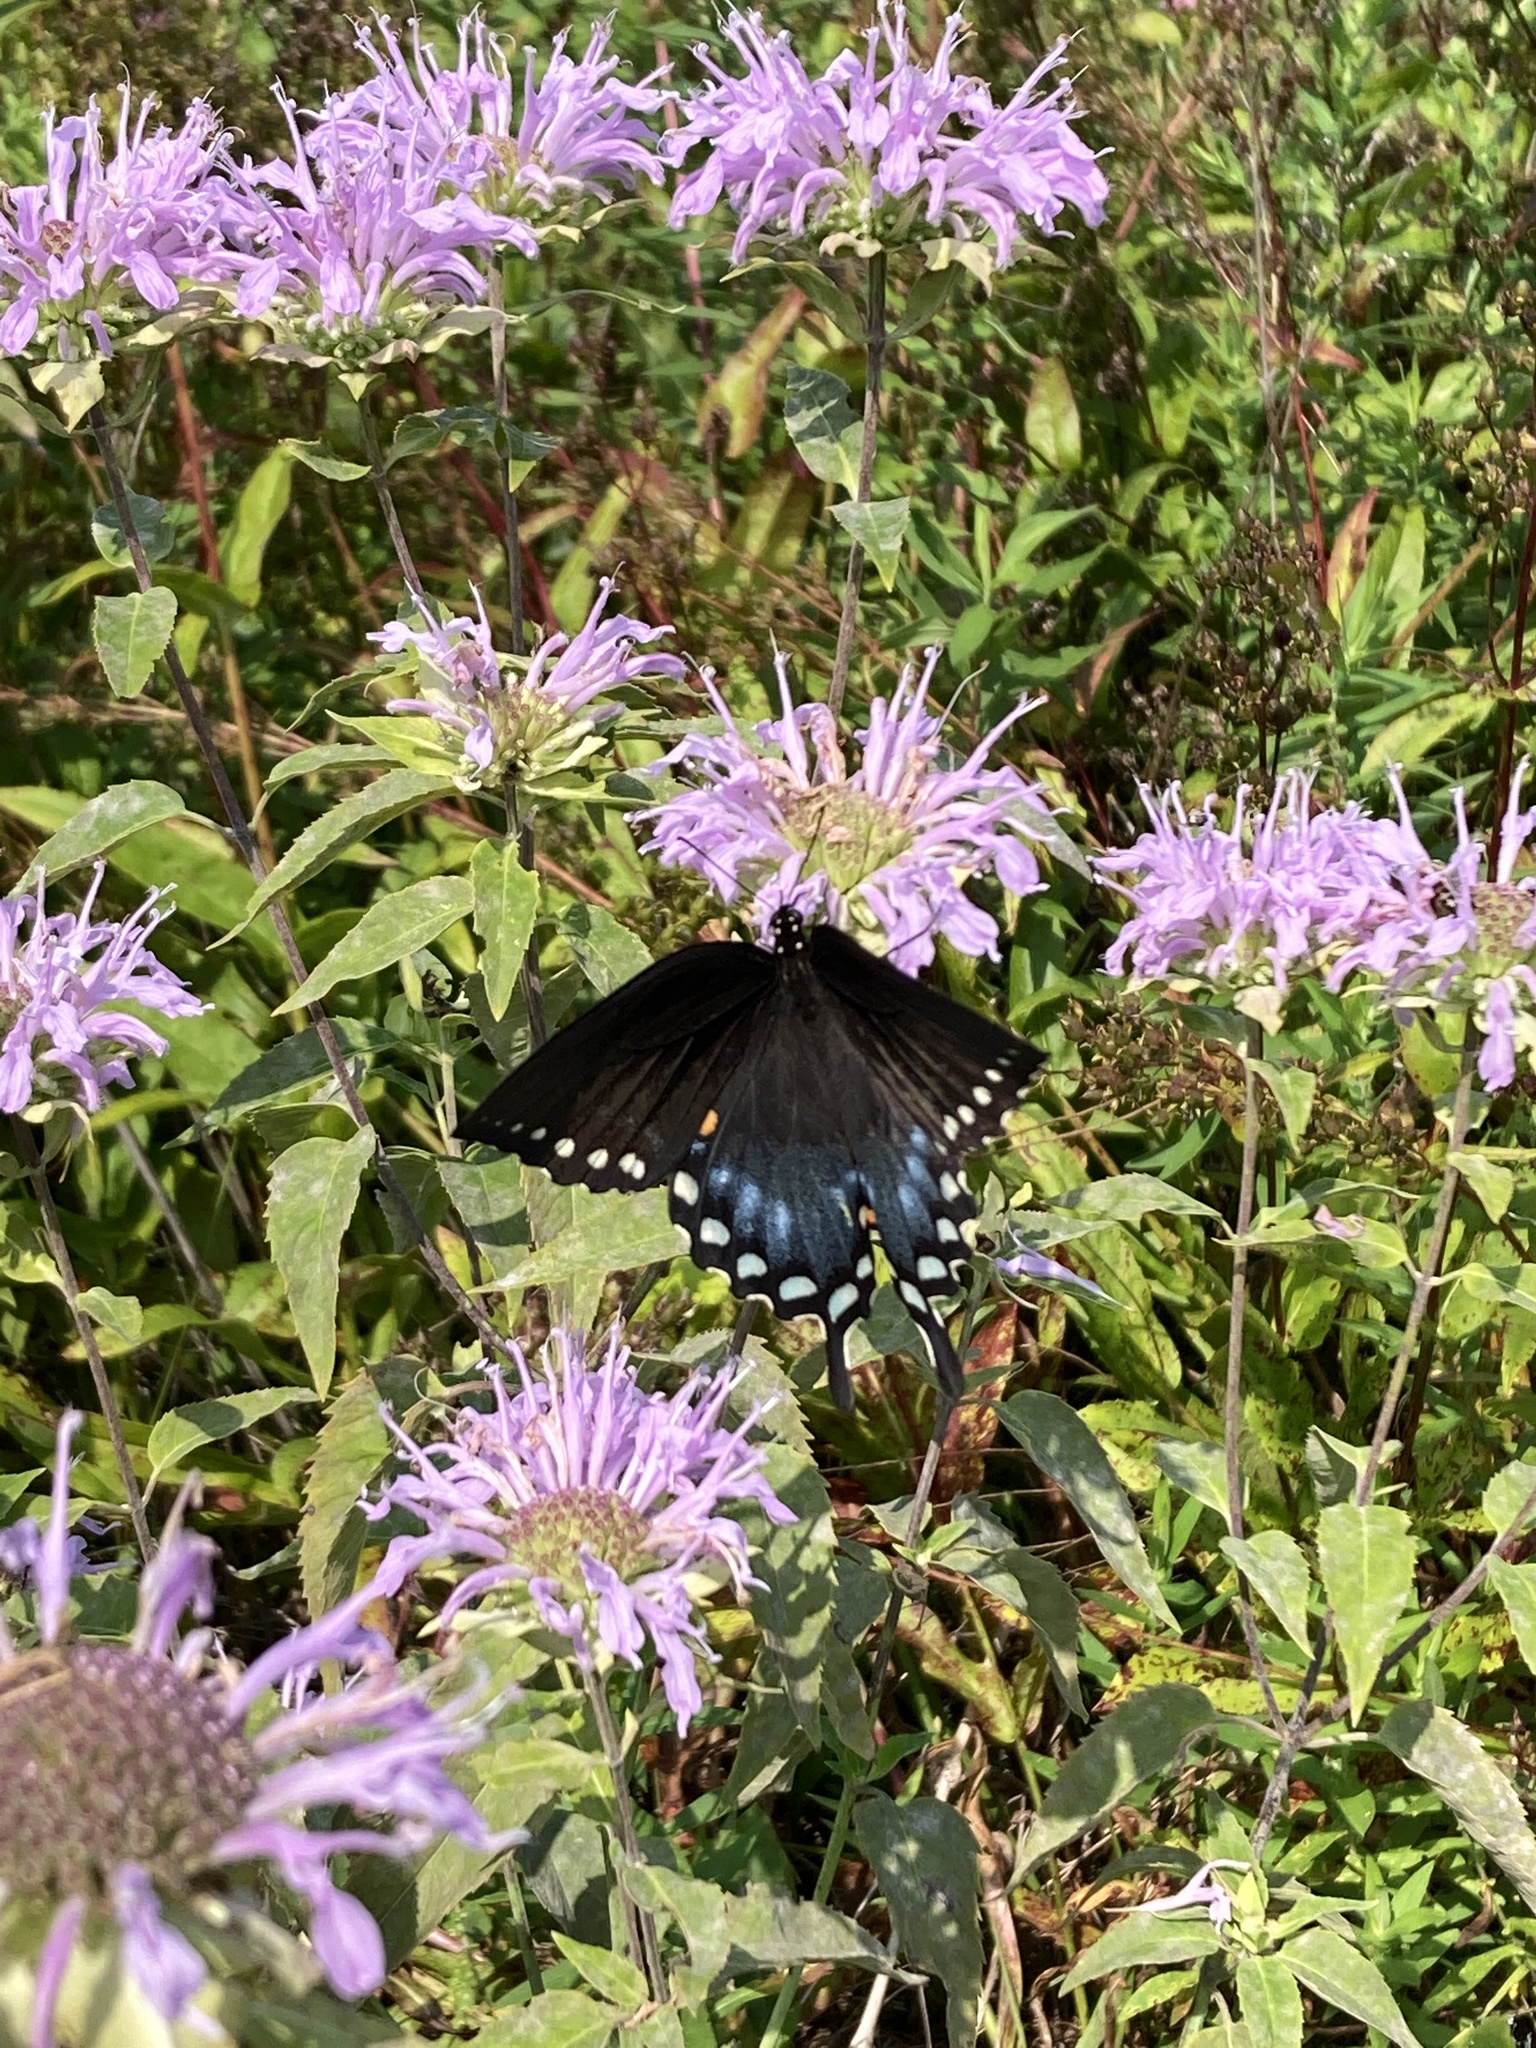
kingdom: Animalia
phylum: Arthropoda
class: Insecta
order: Lepidoptera
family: Papilionidae
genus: Papilio
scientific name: Papilio troilus
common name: Spicebush swallowtail
